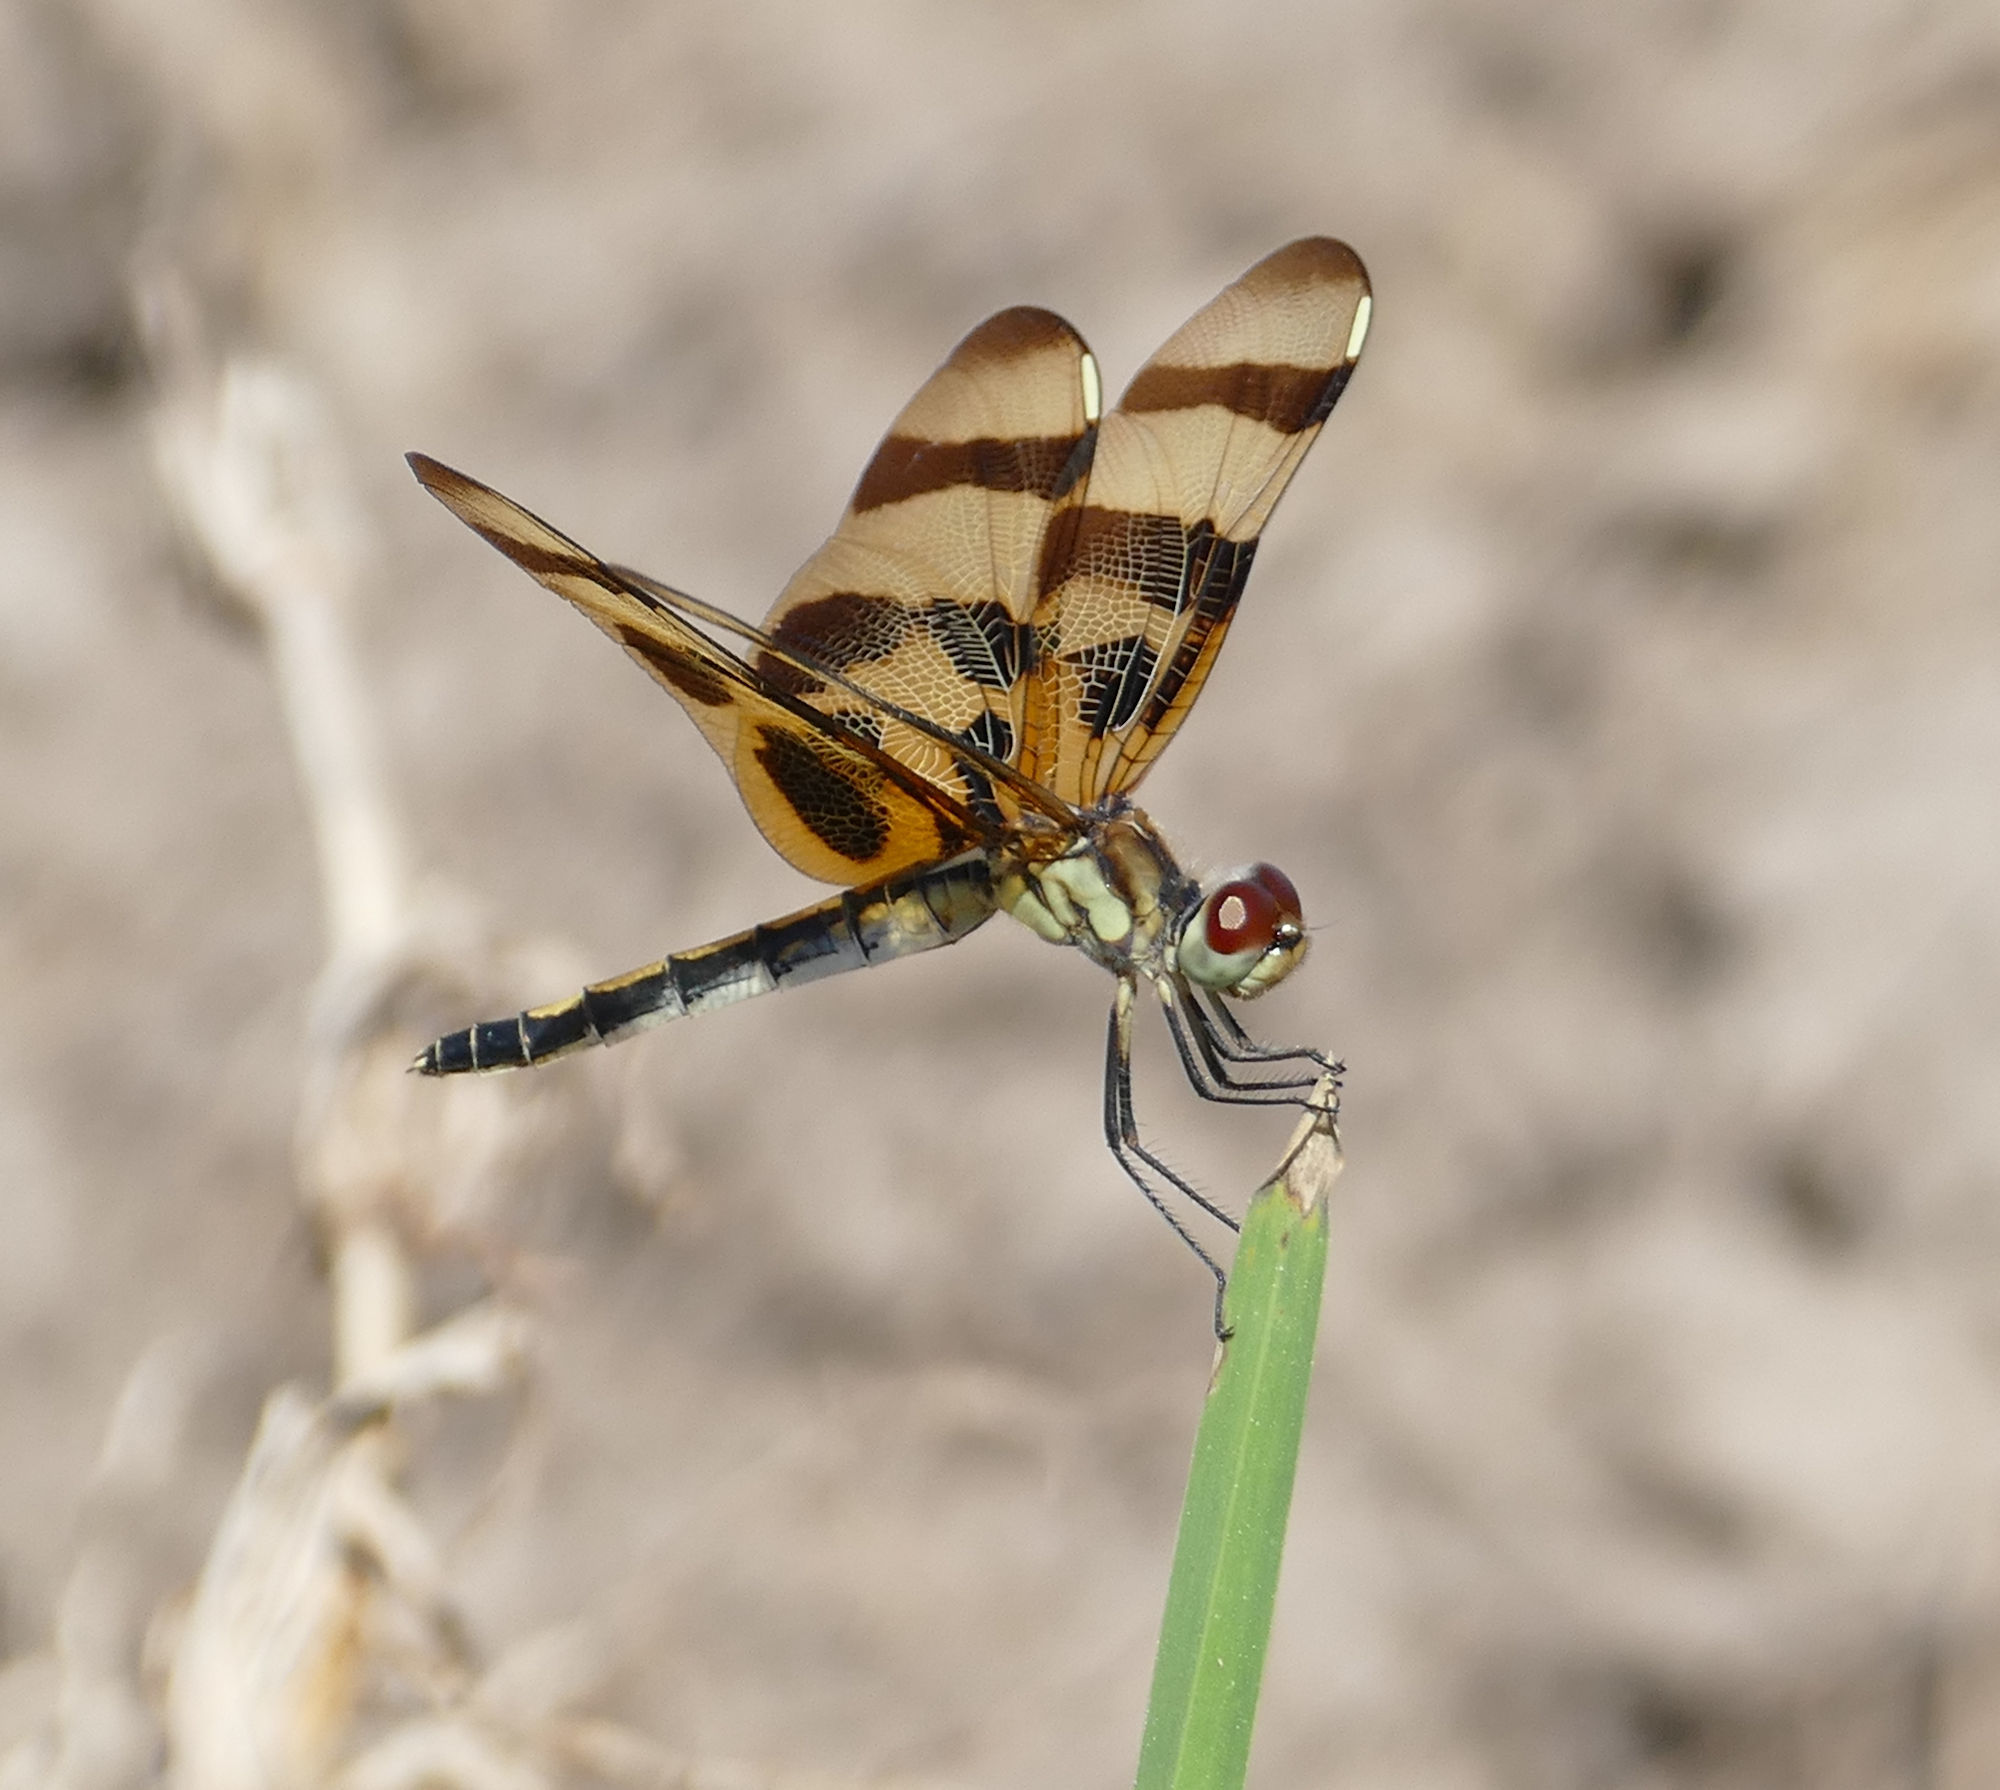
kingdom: Animalia
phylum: Arthropoda
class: Insecta
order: Odonata
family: Libellulidae
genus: Celithemis
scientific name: Celithemis eponina
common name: Halloween pennant
